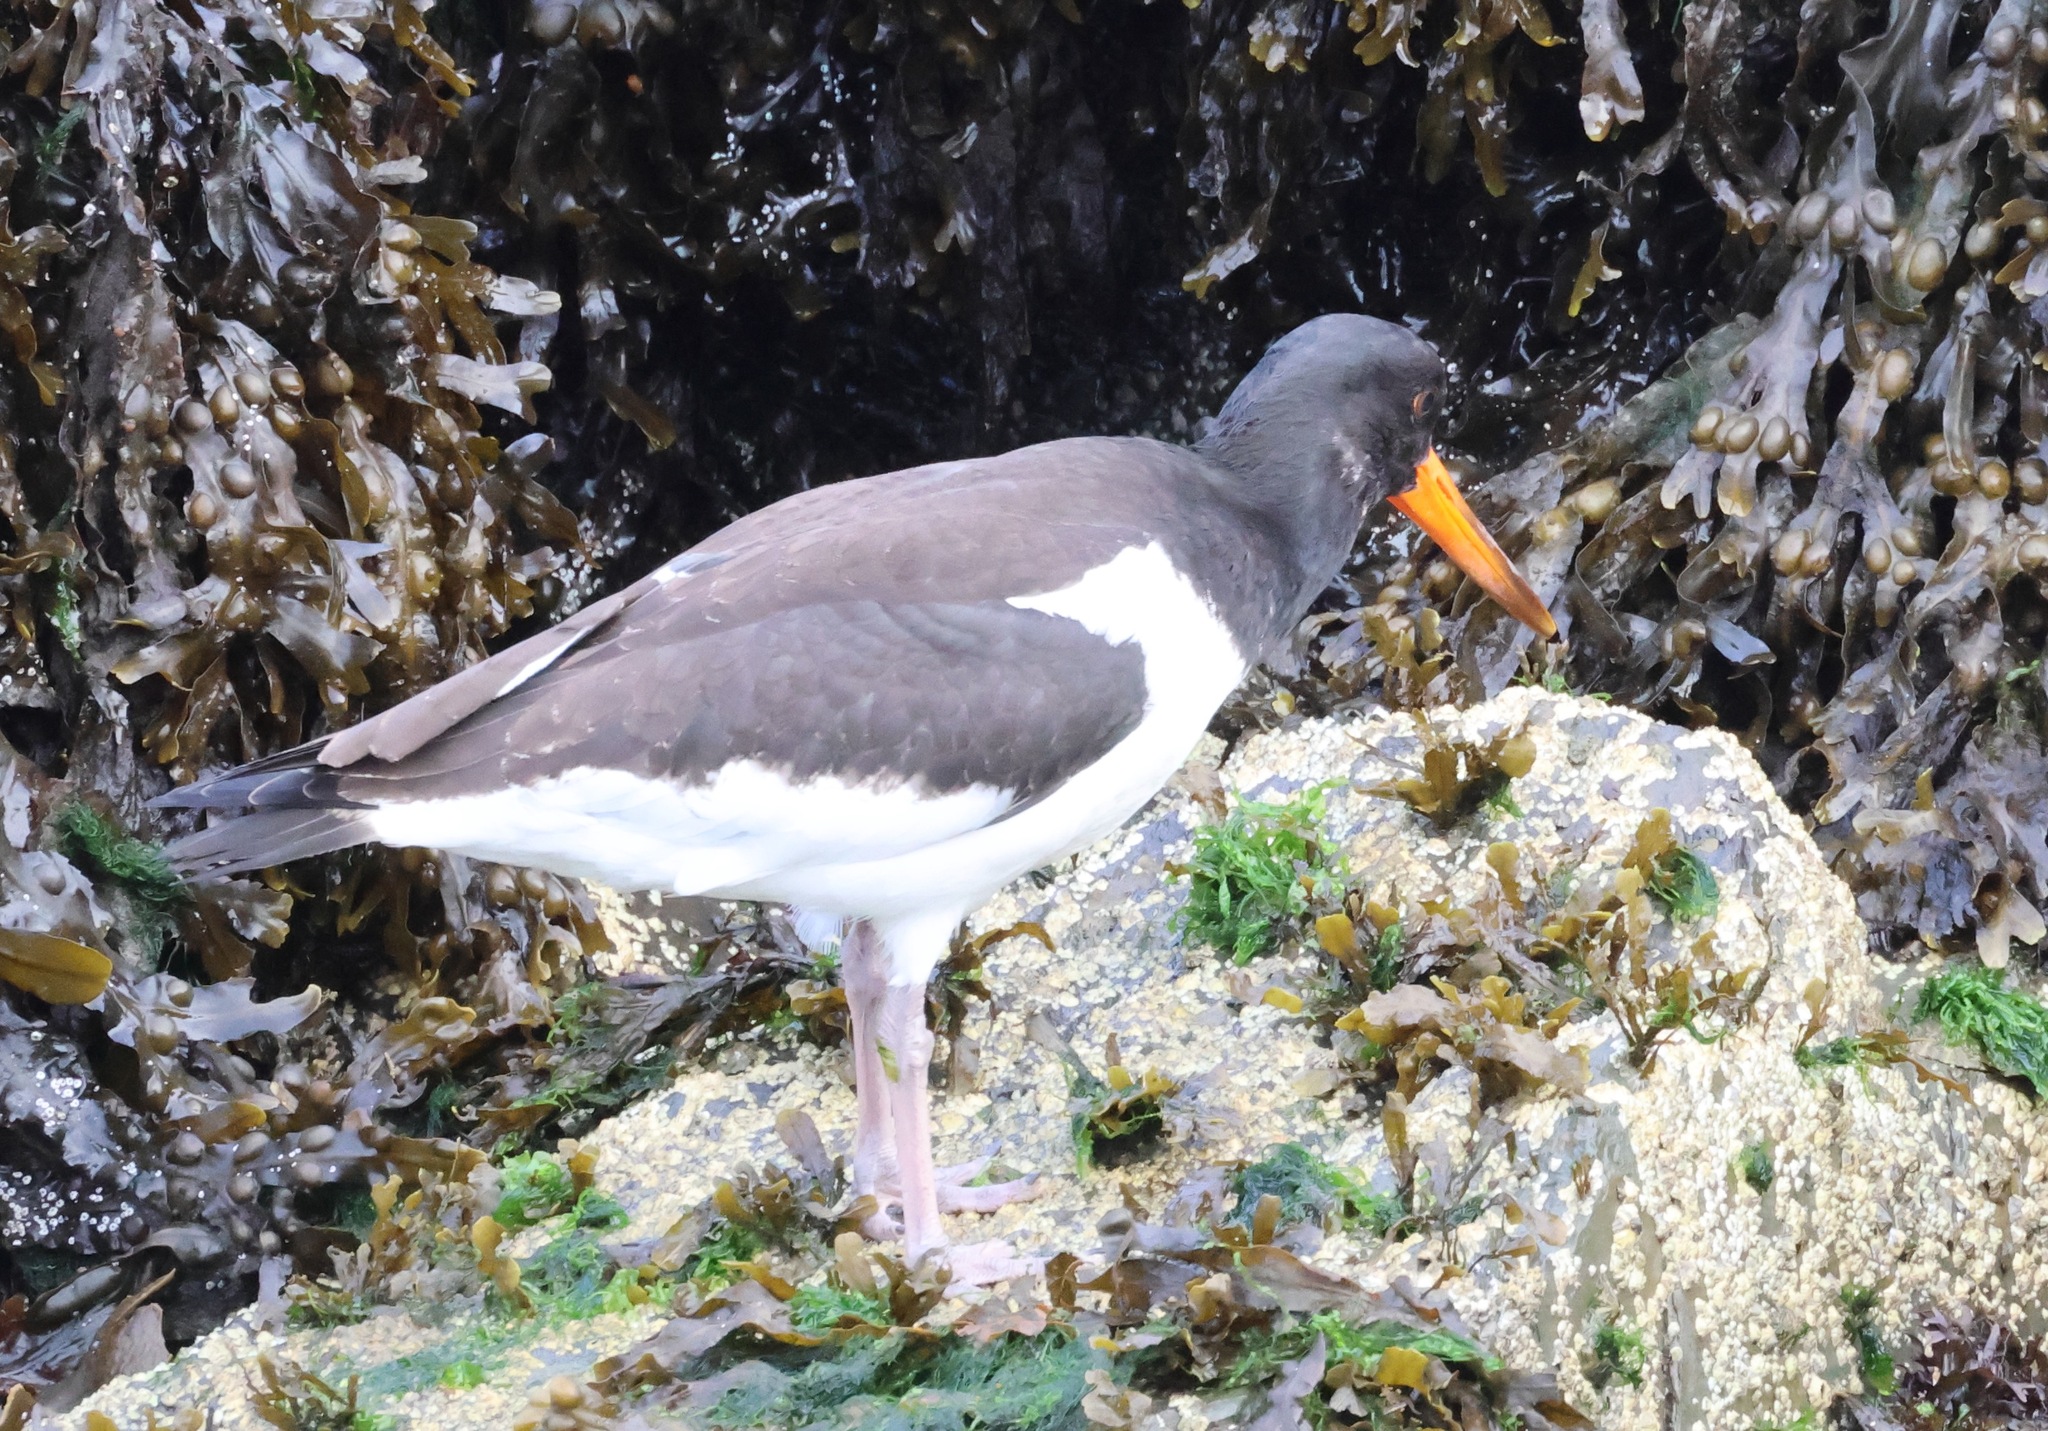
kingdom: Animalia
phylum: Chordata
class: Aves
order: Charadriiformes
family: Haematopodidae
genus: Haematopus
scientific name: Haematopus ostralegus
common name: Eurasian oystercatcher
